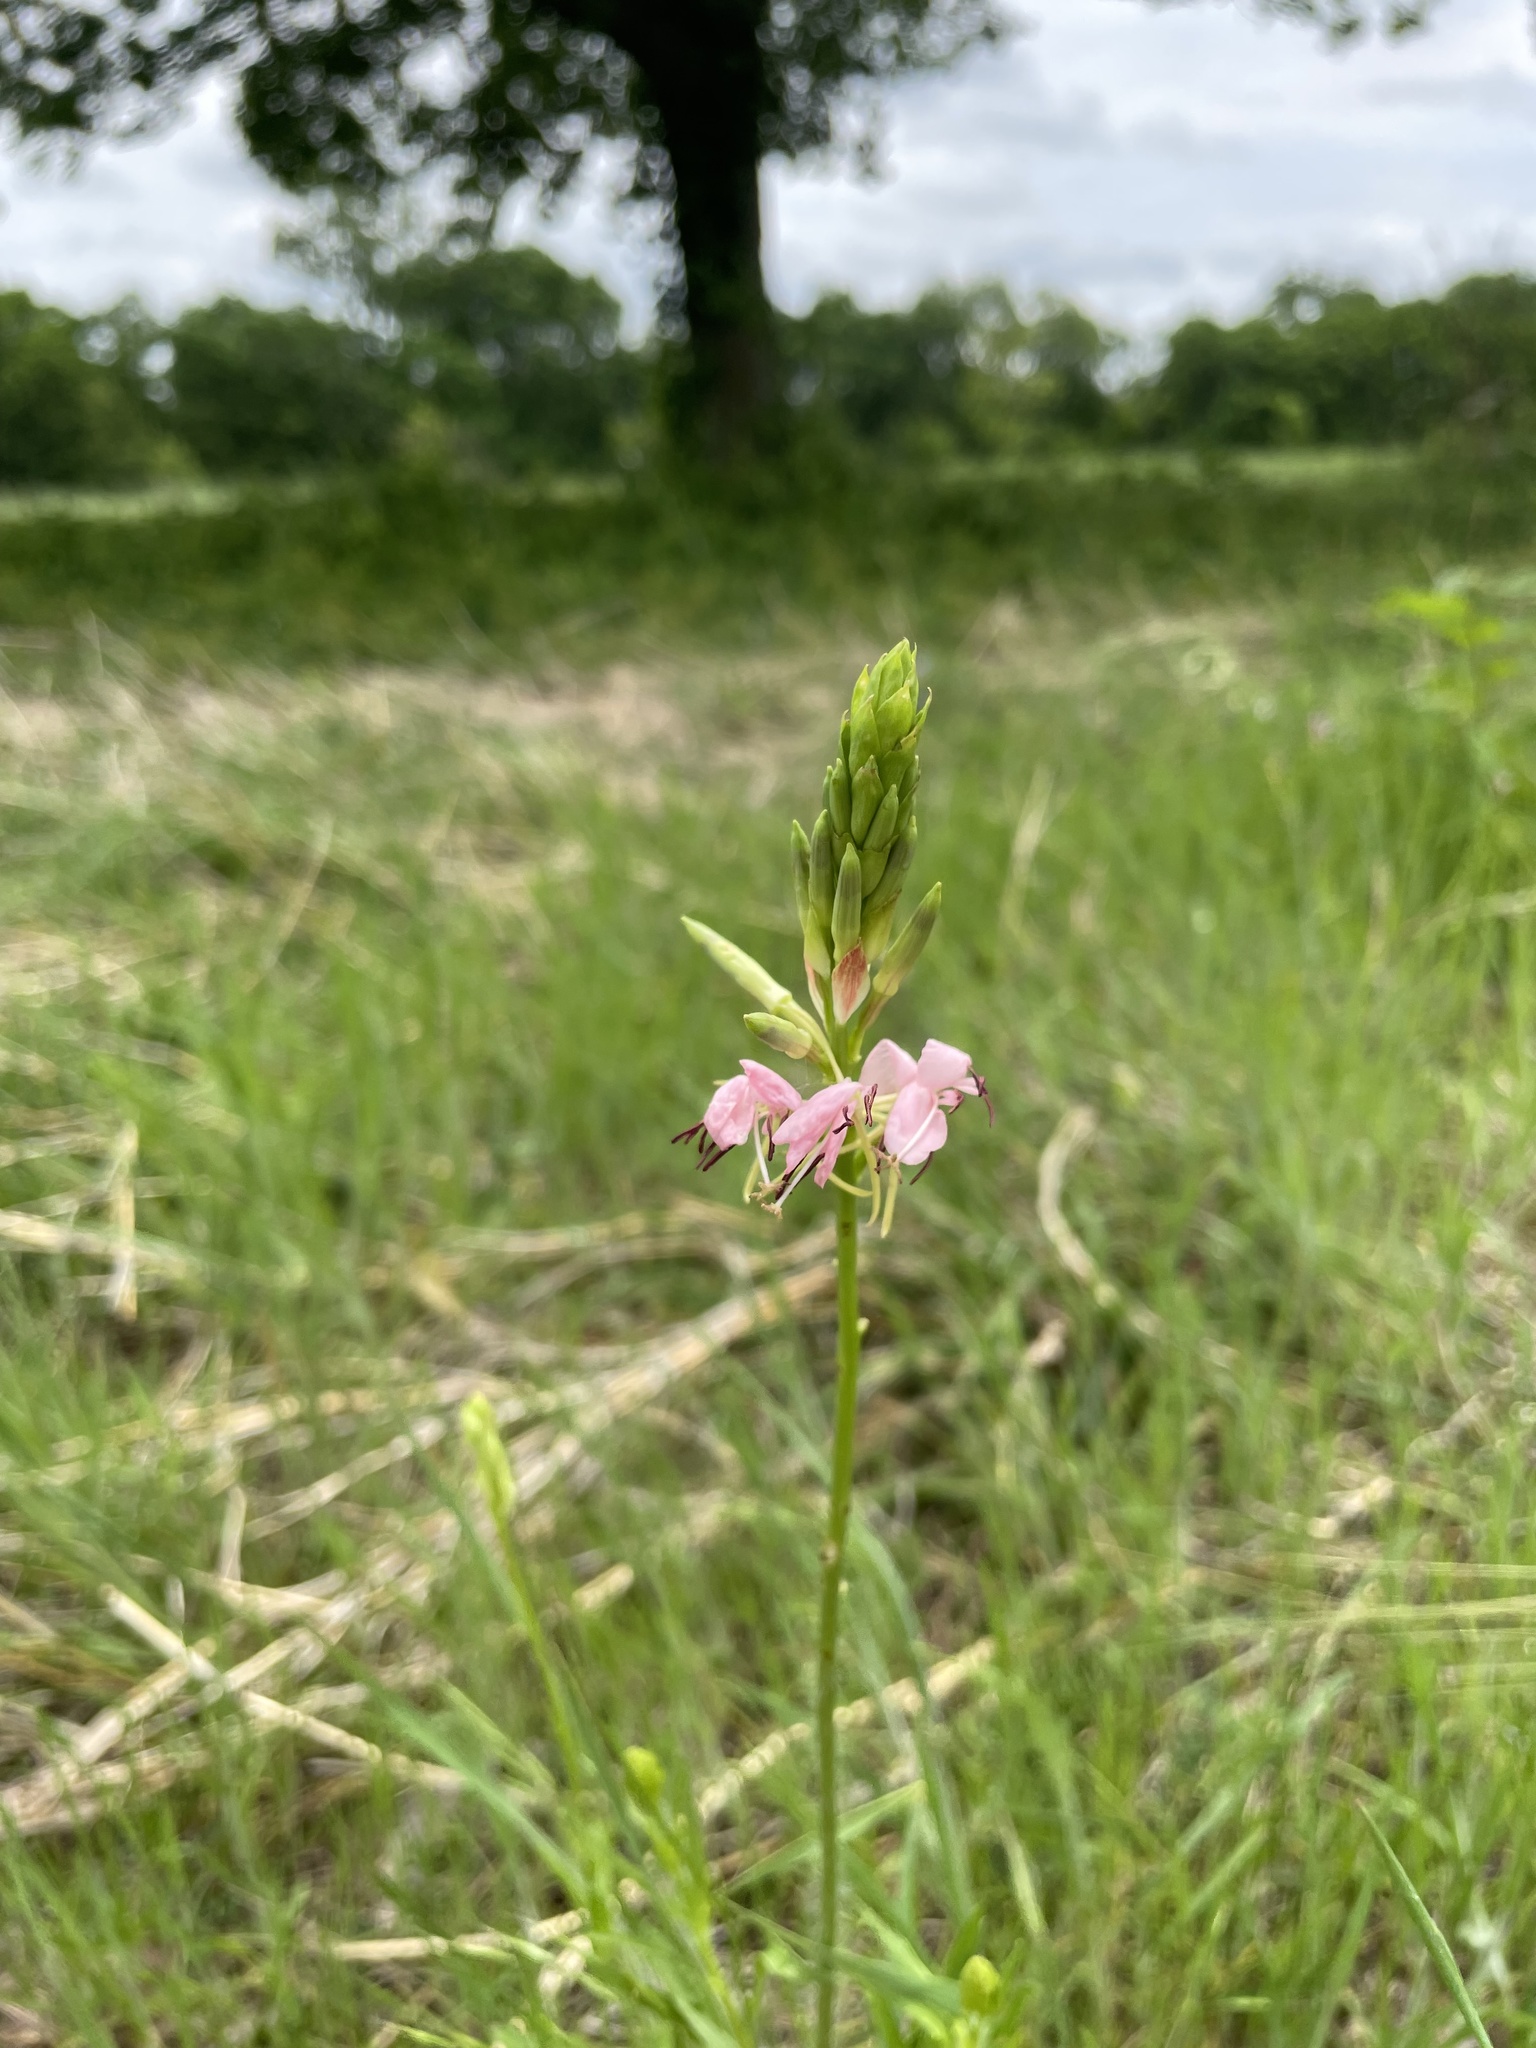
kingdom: Plantae
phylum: Tracheophyta
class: Magnoliopsida
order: Myrtales
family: Onagraceae
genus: Oenothera
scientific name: Oenothera suffulta
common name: Kisses
